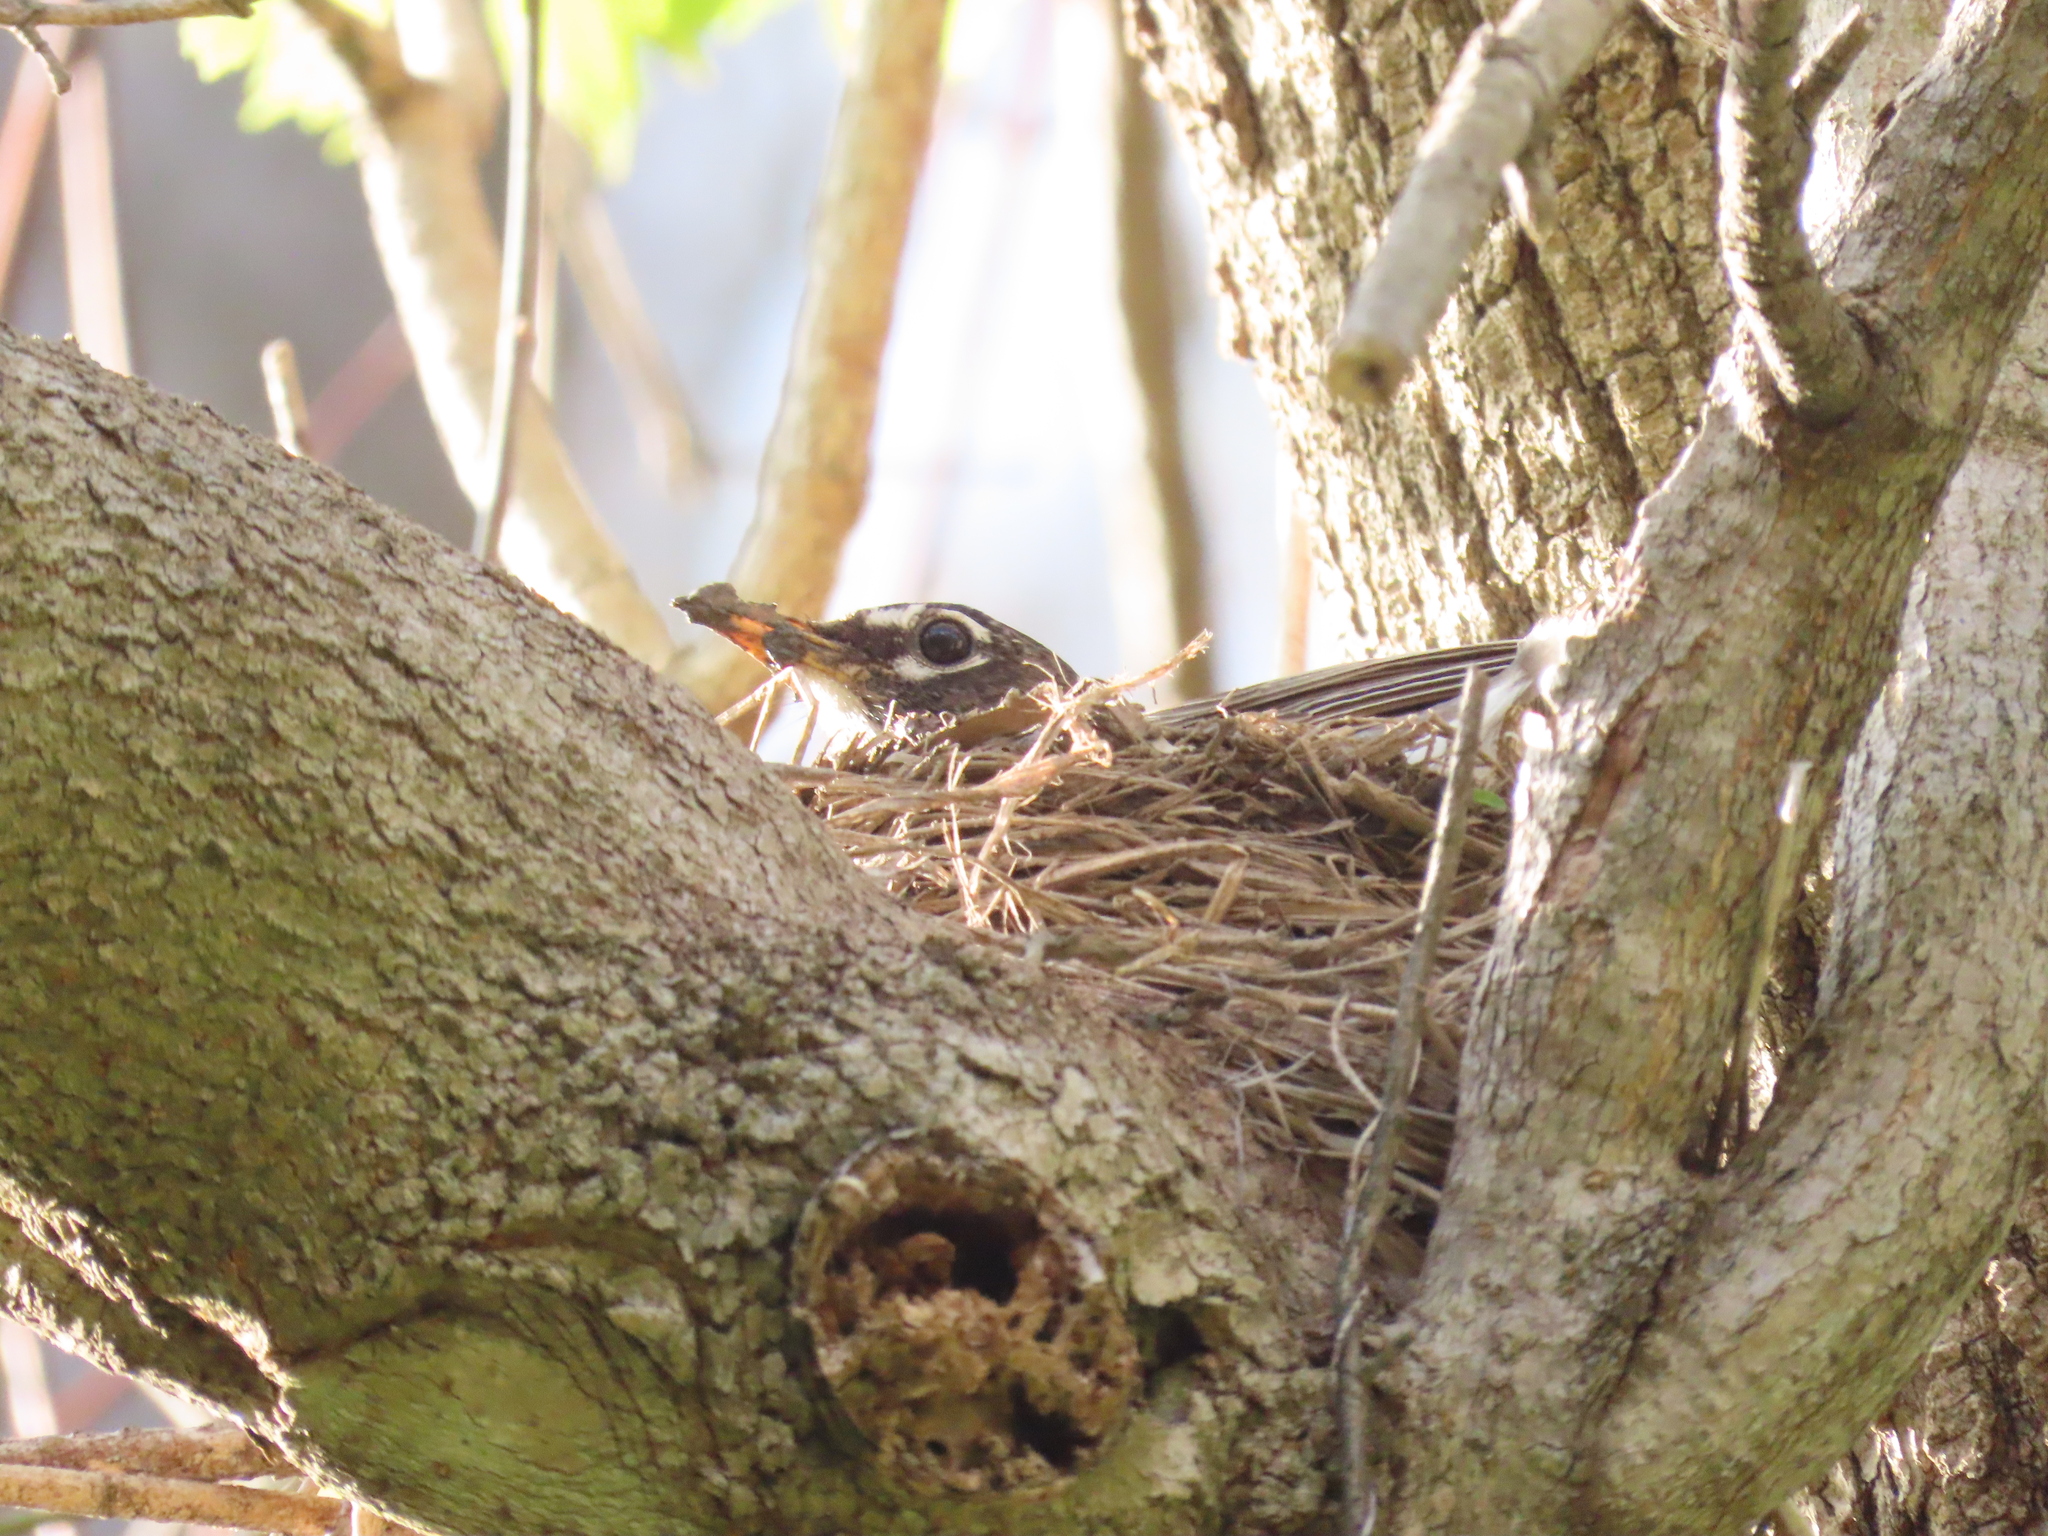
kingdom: Animalia
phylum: Chordata
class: Aves
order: Passeriformes
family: Turdidae
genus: Turdus
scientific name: Turdus migratorius
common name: American robin
